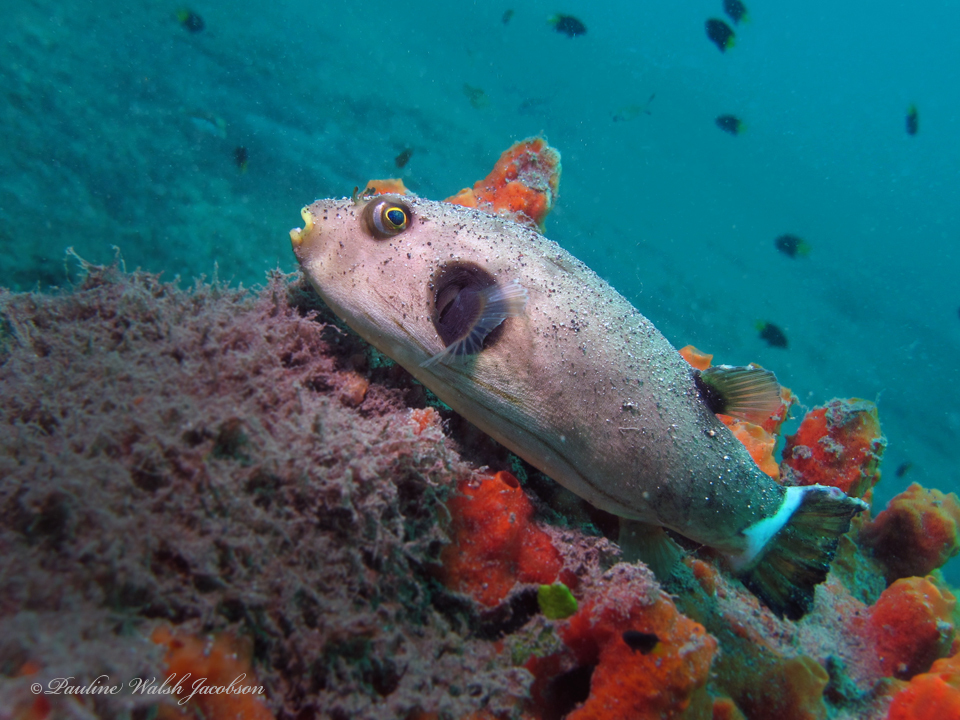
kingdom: Animalia
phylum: Chordata
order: Tetraodontiformes
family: Tetraodontidae
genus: Arothron
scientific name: Arothron manilensis
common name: Narrow-lined puffer
